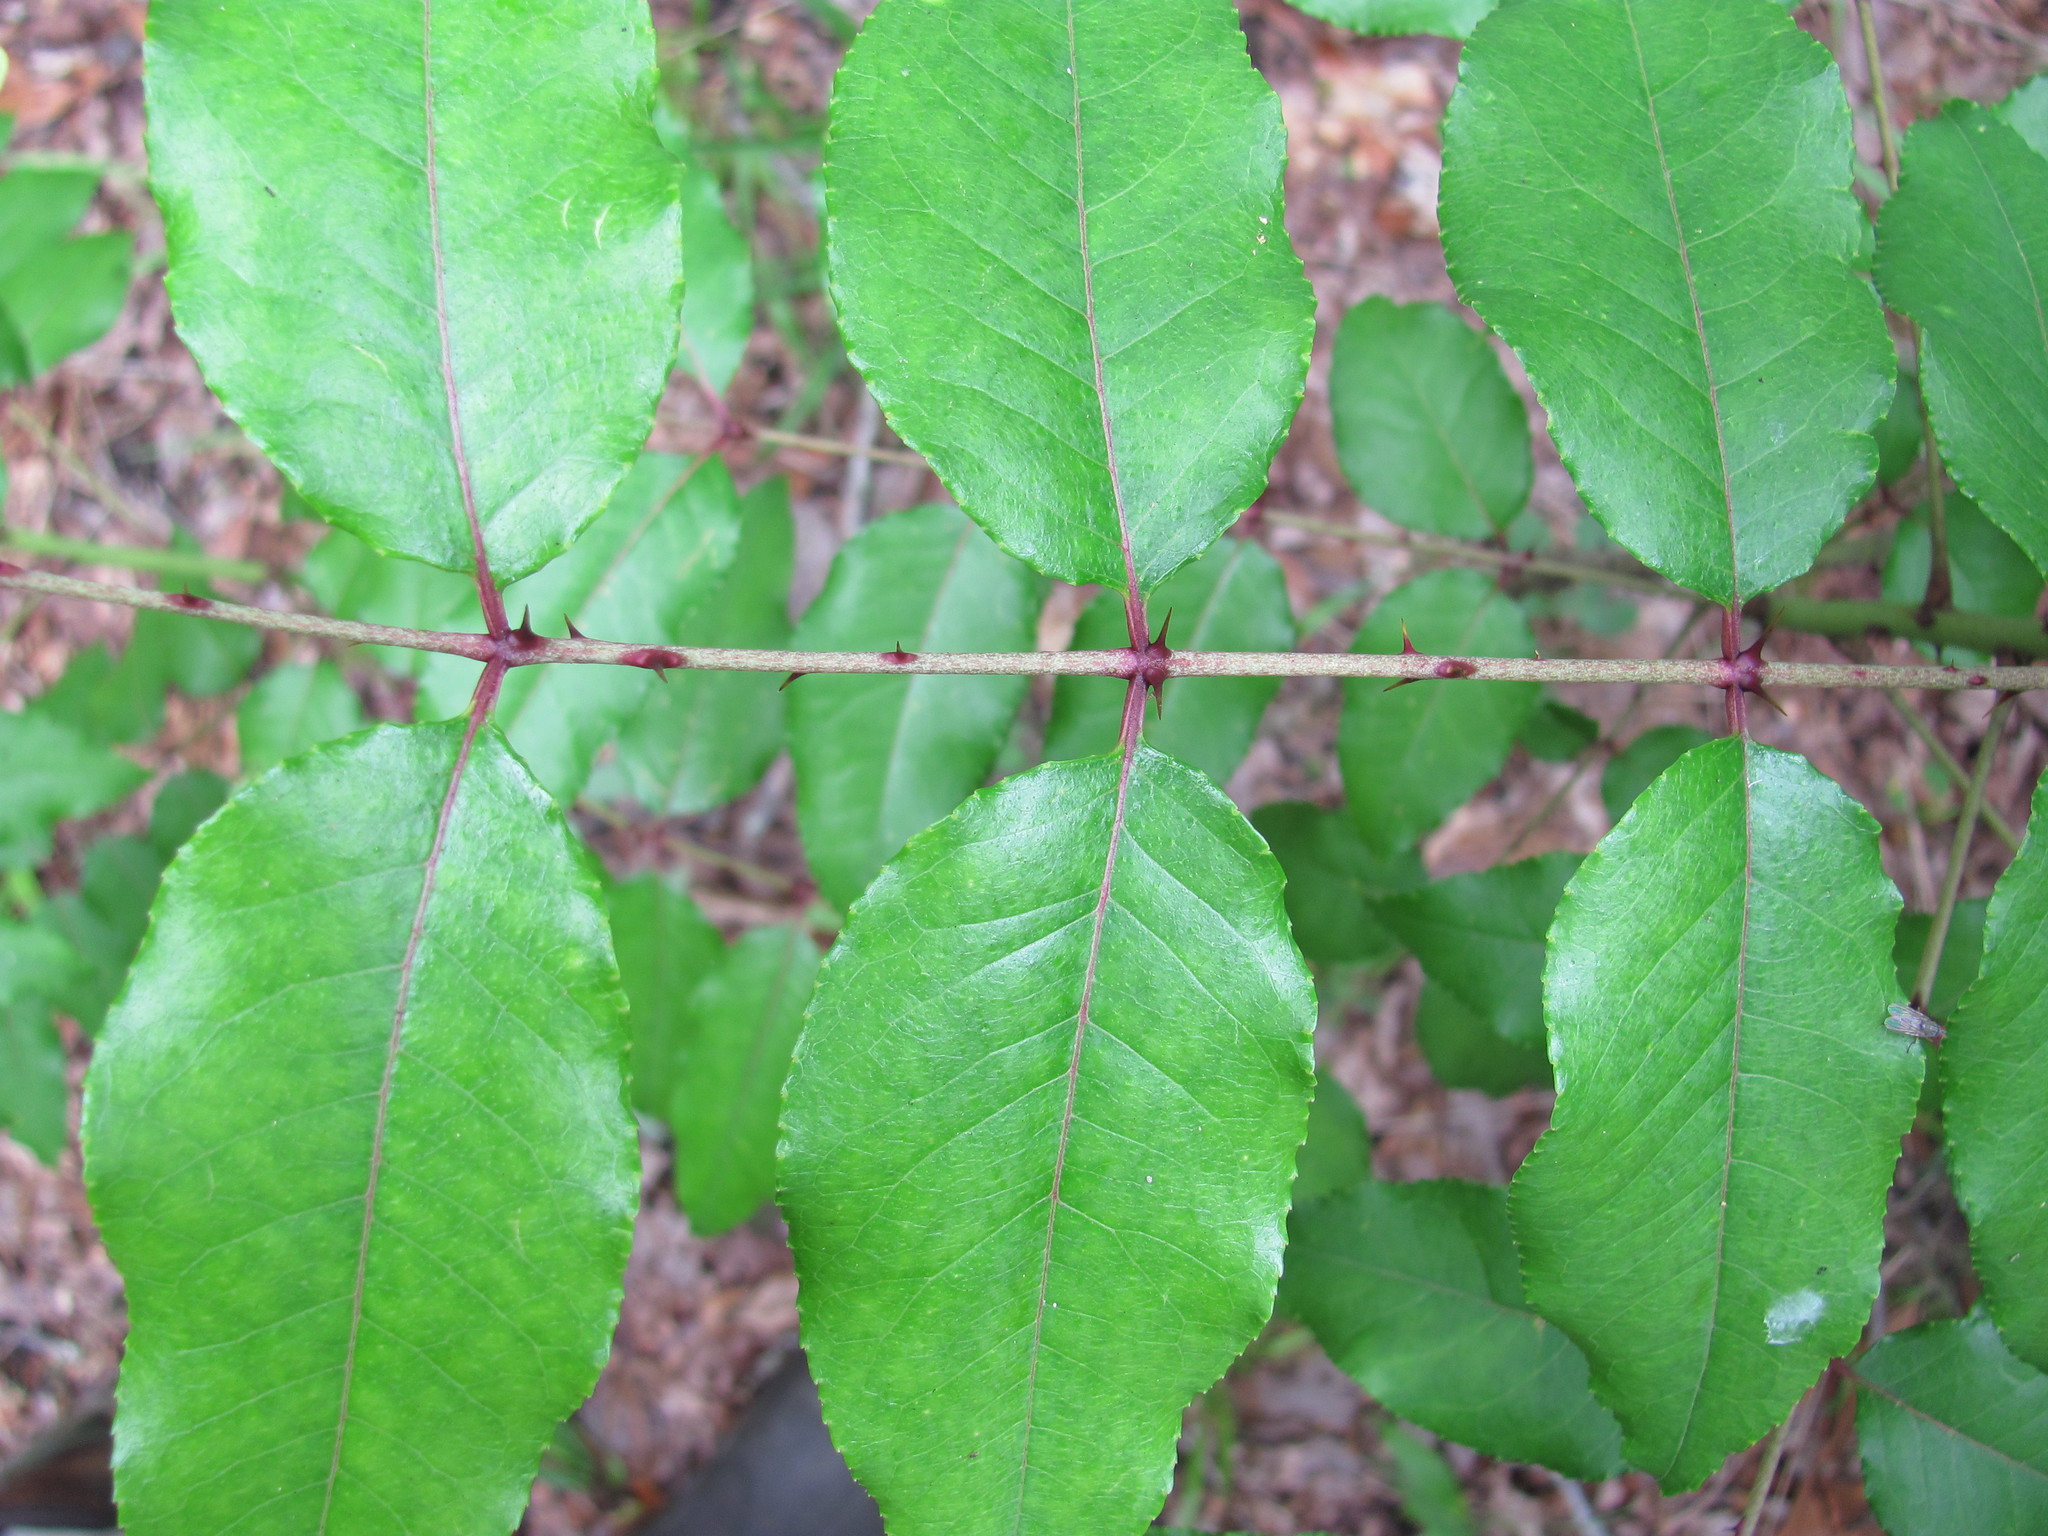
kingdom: Plantae
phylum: Tracheophyta
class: Magnoliopsida
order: Sapindales
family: Rutaceae
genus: Zanthoxylum
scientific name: Zanthoxylum clava-herculis
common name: Hercules'-club
